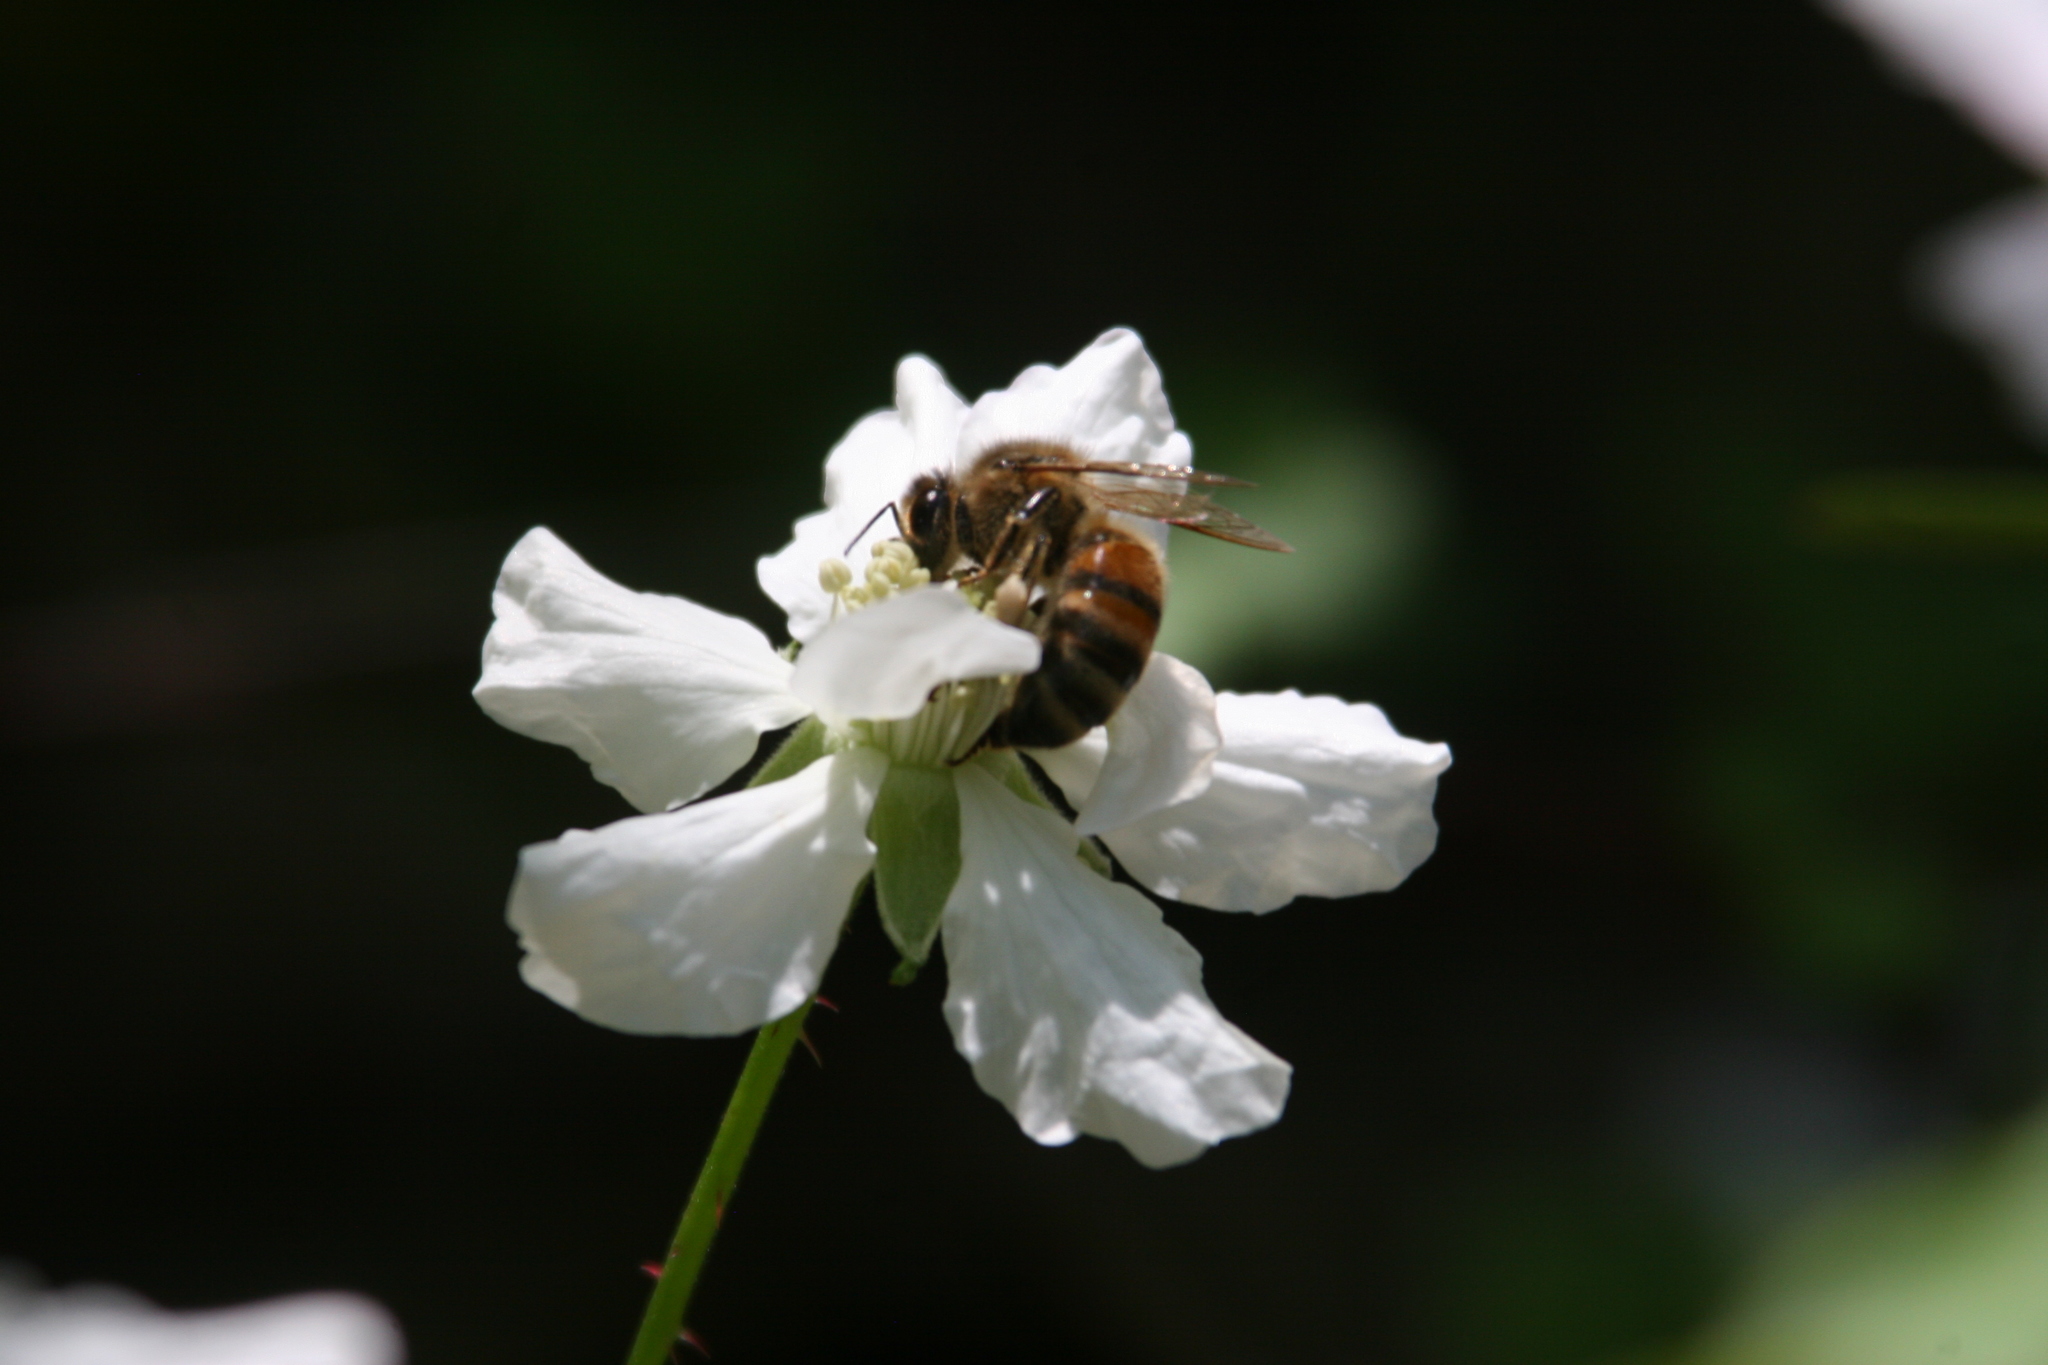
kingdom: Animalia
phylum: Arthropoda
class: Insecta
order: Hymenoptera
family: Apidae
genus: Apis
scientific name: Apis mellifera
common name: Honey bee
